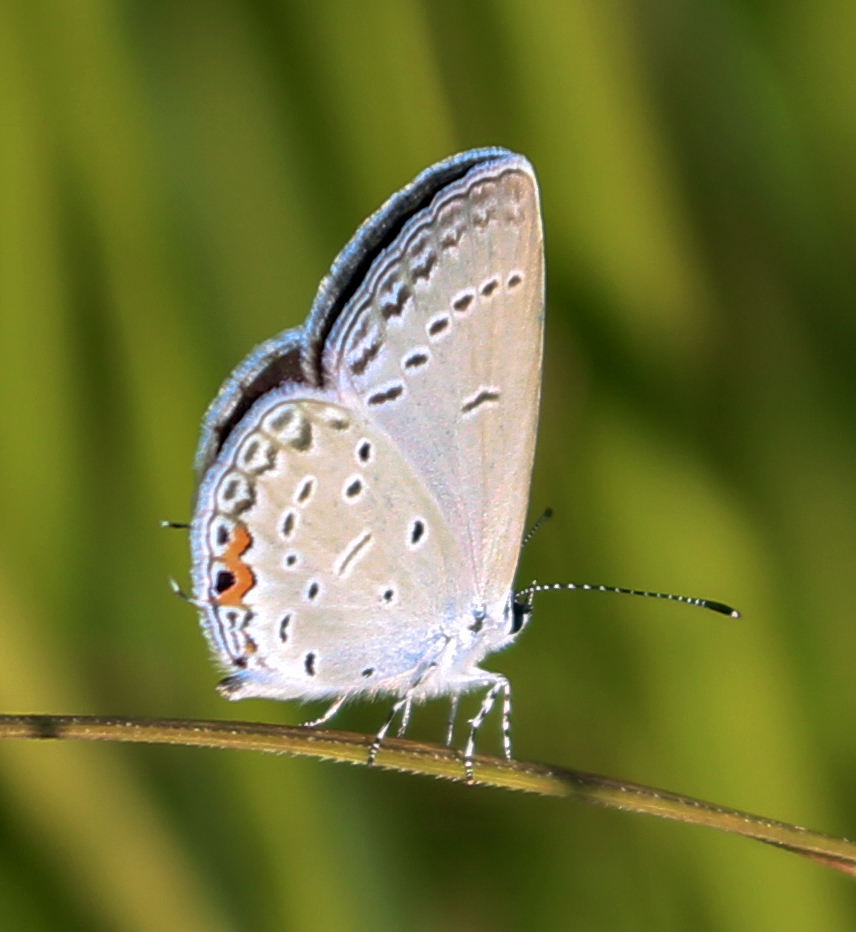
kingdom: Animalia
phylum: Arthropoda
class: Insecta
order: Lepidoptera
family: Lycaenidae
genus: Elkalyce
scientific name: Elkalyce comyntas
